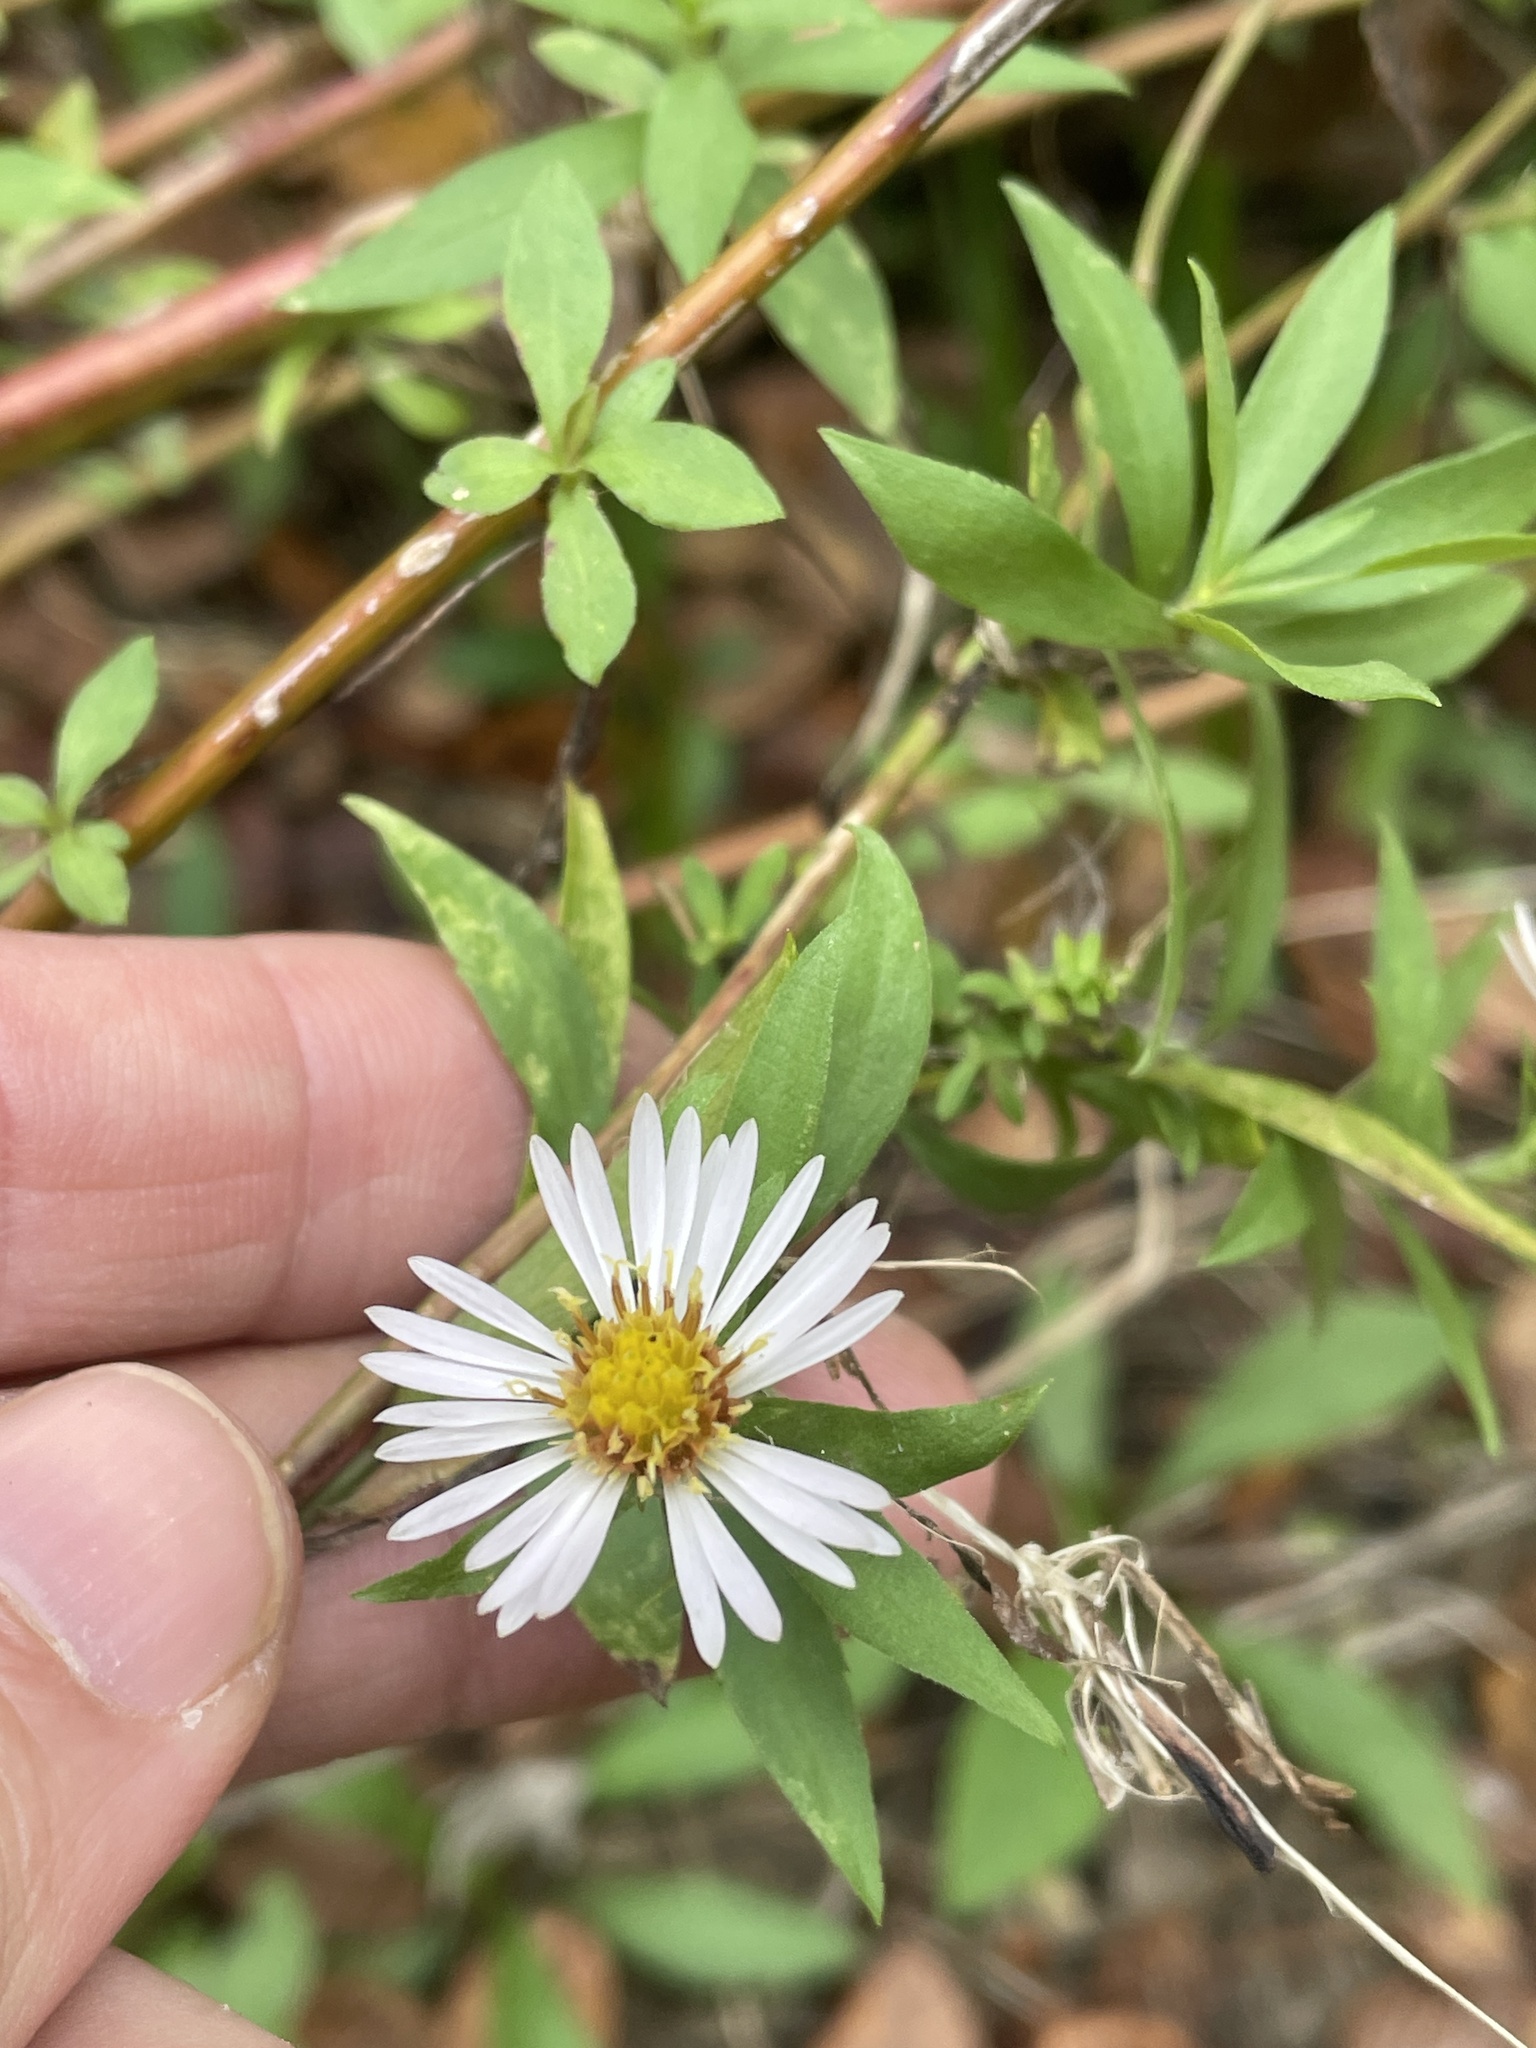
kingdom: Plantae
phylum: Tracheophyta
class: Magnoliopsida
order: Asterales
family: Asteraceae
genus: Symphyotrichum
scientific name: Symphyotrichum lanceolatum
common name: Panicled aster
